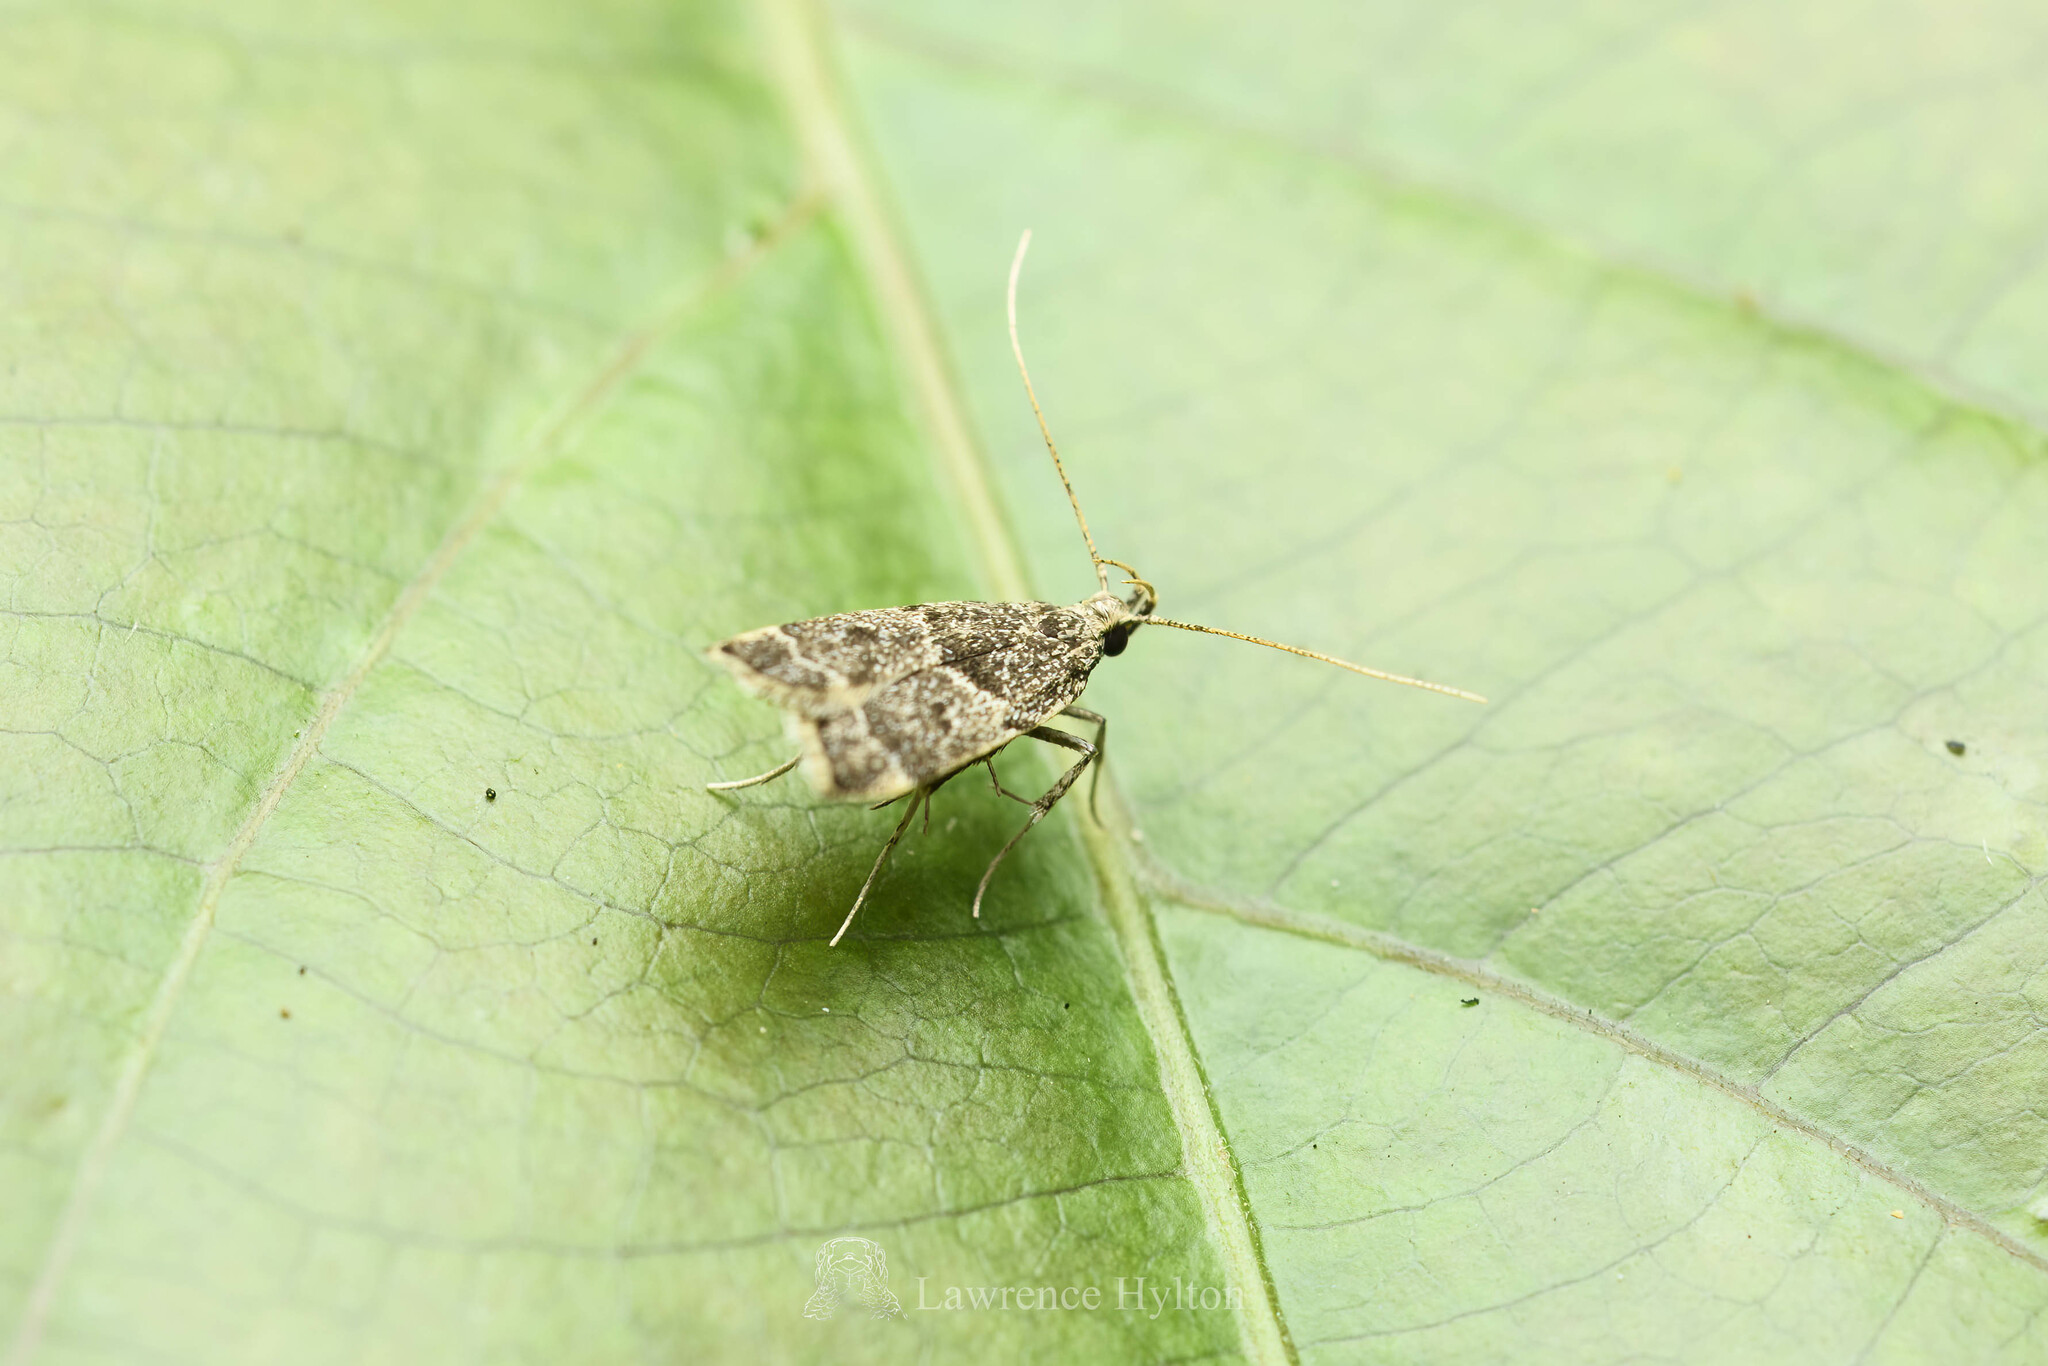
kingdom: Animalia
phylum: Arthropoda
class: Insecta
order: Lepidoptera
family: Lecithoceridae
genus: Athymoris
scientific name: Athymoris martialis
